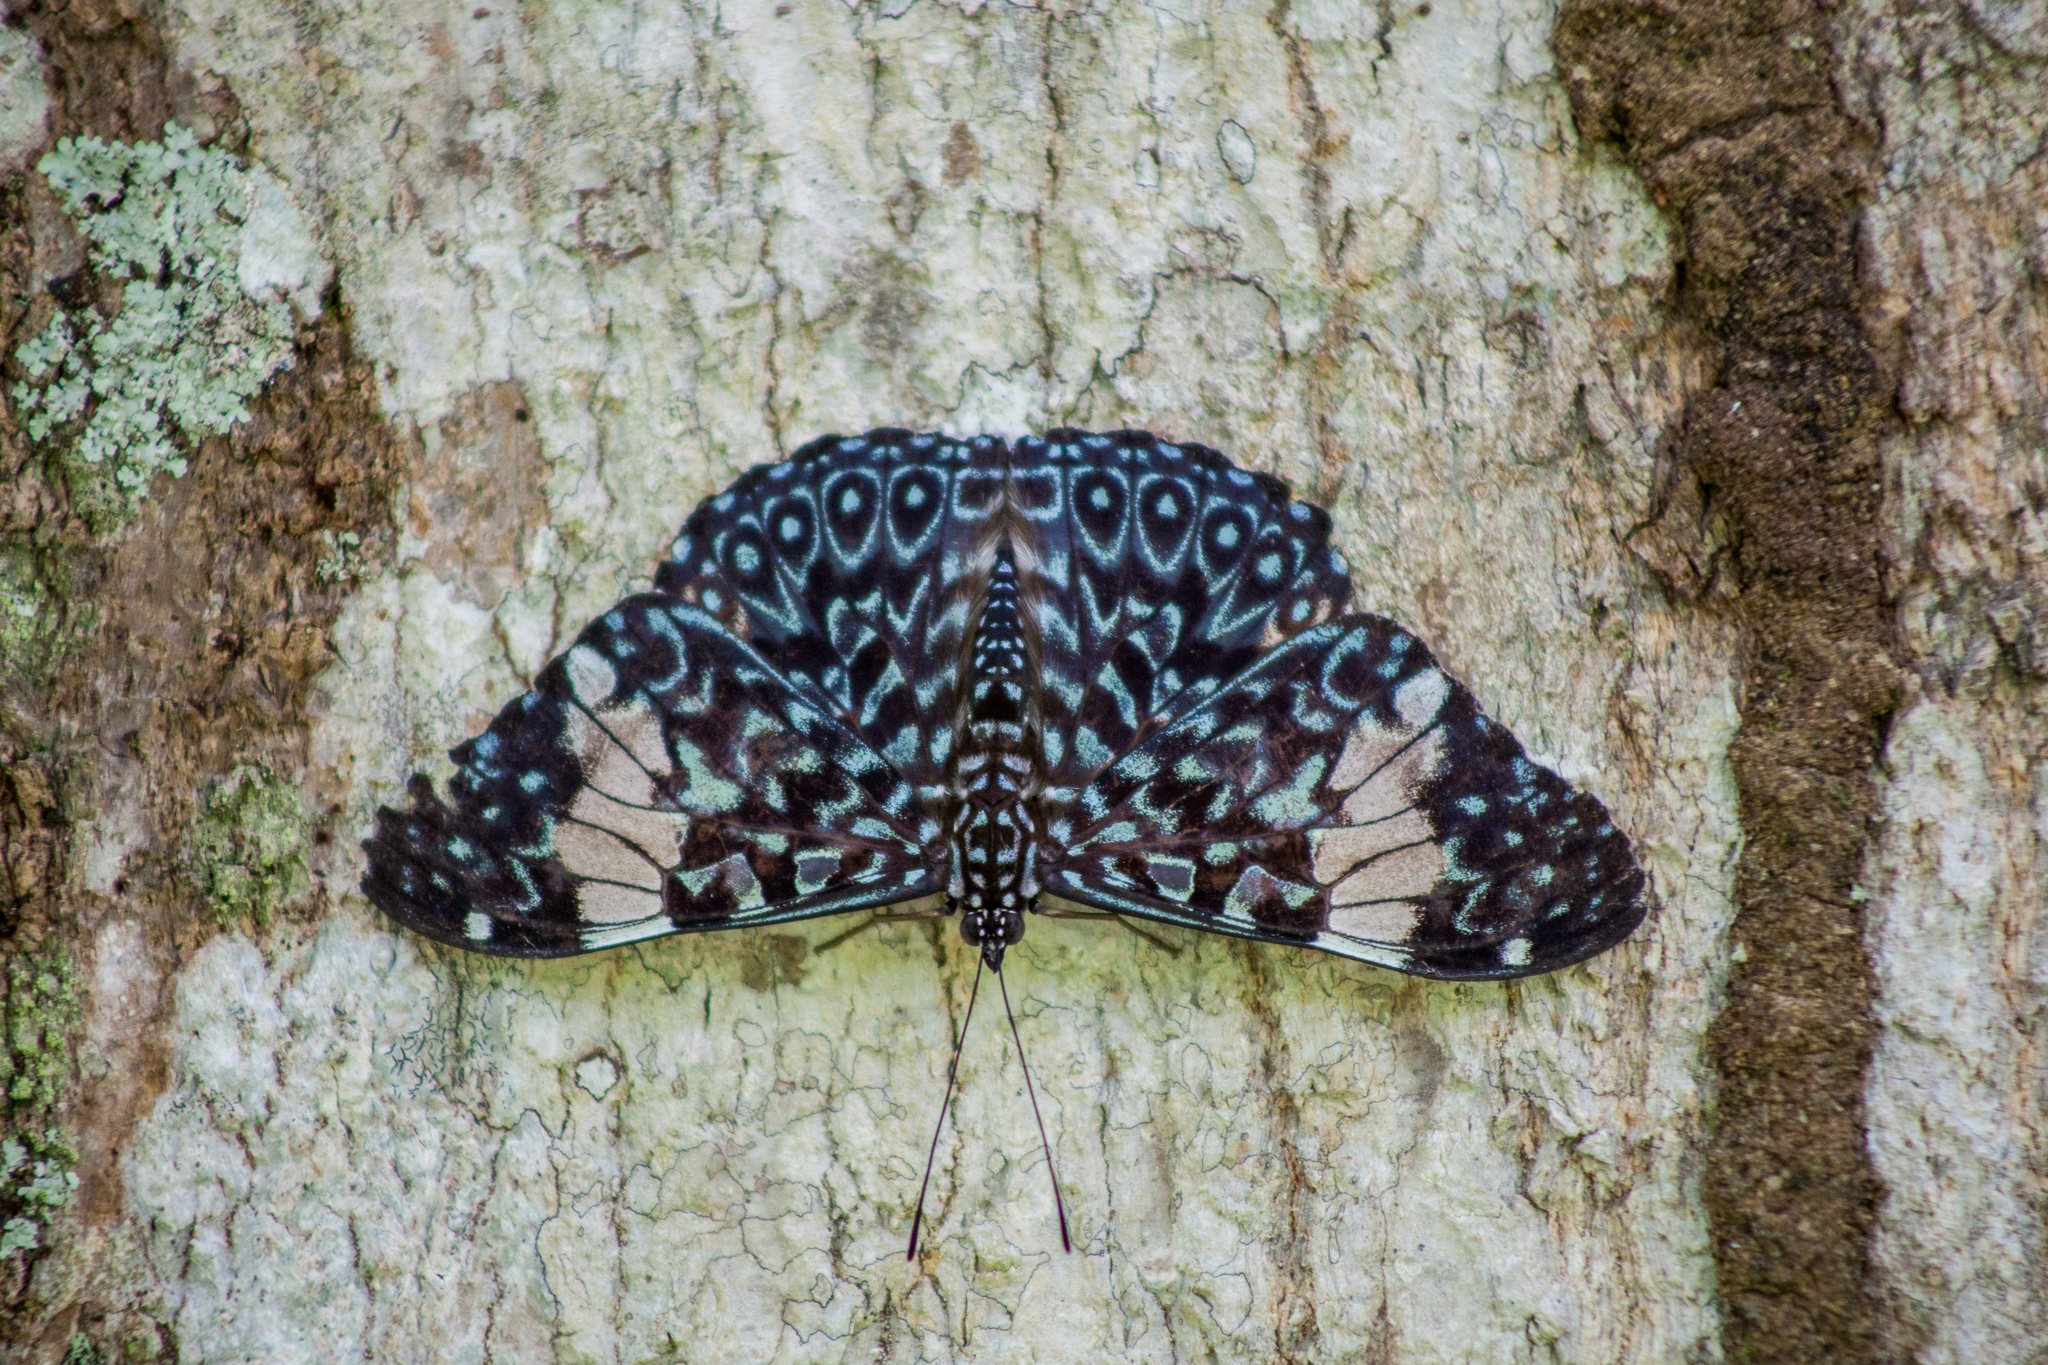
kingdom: Animalia
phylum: Arthropoda
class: Insecta
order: Lepidoptera
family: Nymphalidae
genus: Hamadryas
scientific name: Hamadryas amphinome
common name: Red cracker
